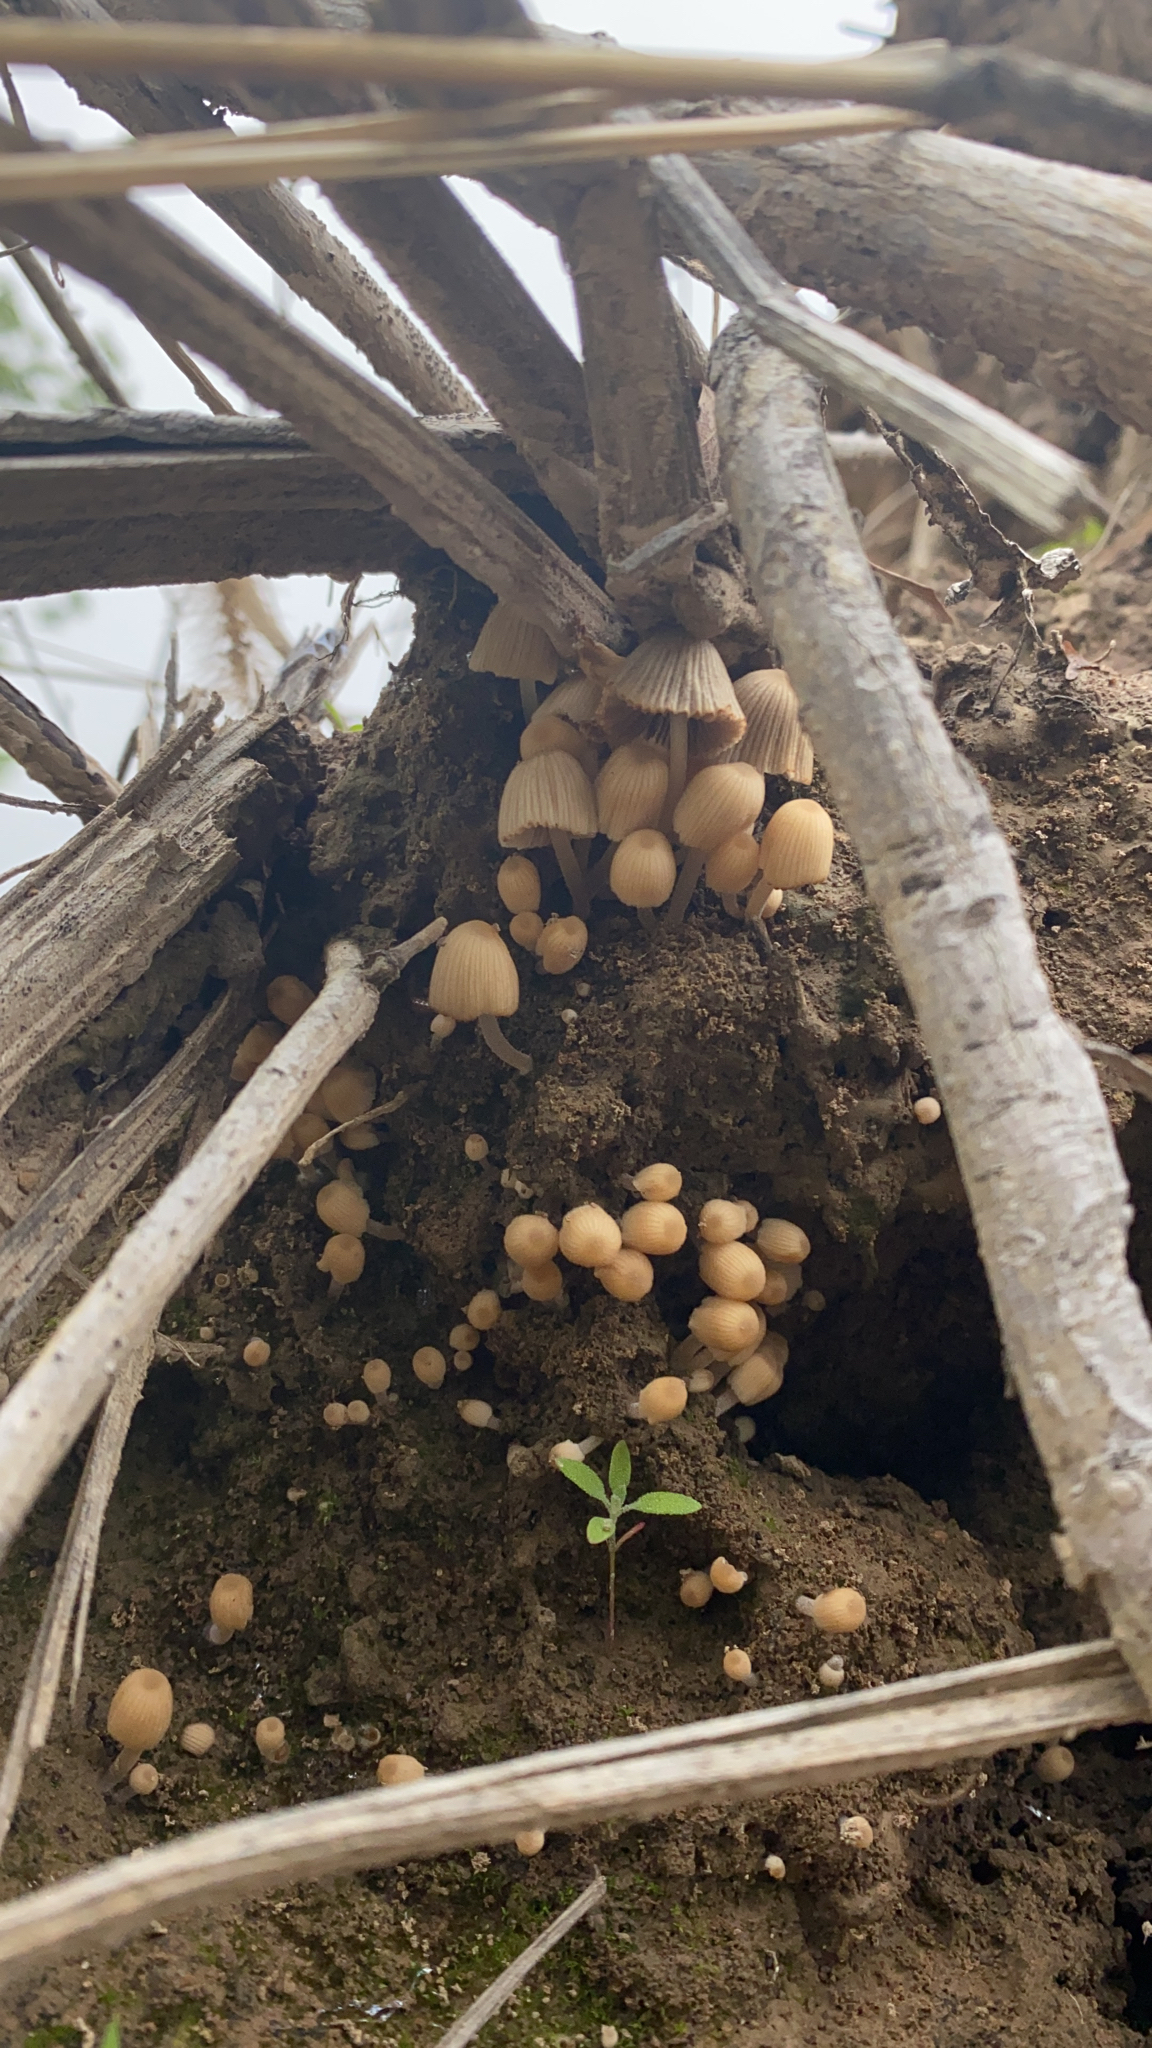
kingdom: Fungi
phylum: Basidiomycota
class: Agaricomycetes
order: Agaricales
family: Psathyrellaceae
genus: Coprinellus
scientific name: Coprinellus disseminatus
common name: Fairies' bonnets
